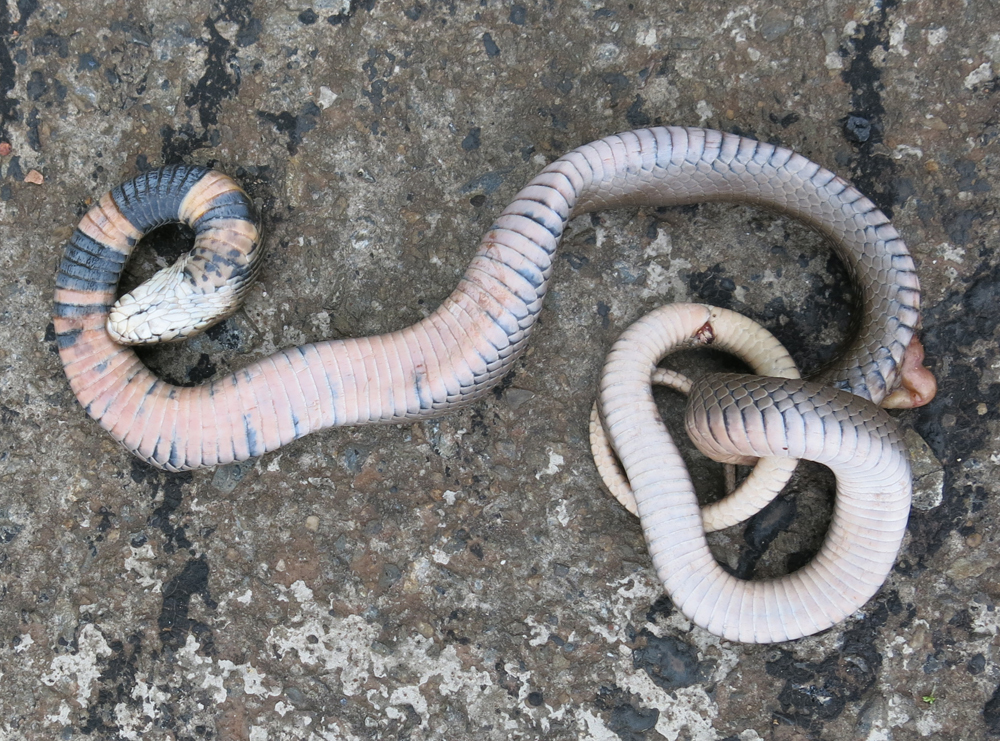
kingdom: Animalia
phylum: Chordata
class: Squamata
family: Elapidae
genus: Naja
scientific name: Naja mossambica
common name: Mozambique spitting cobra
